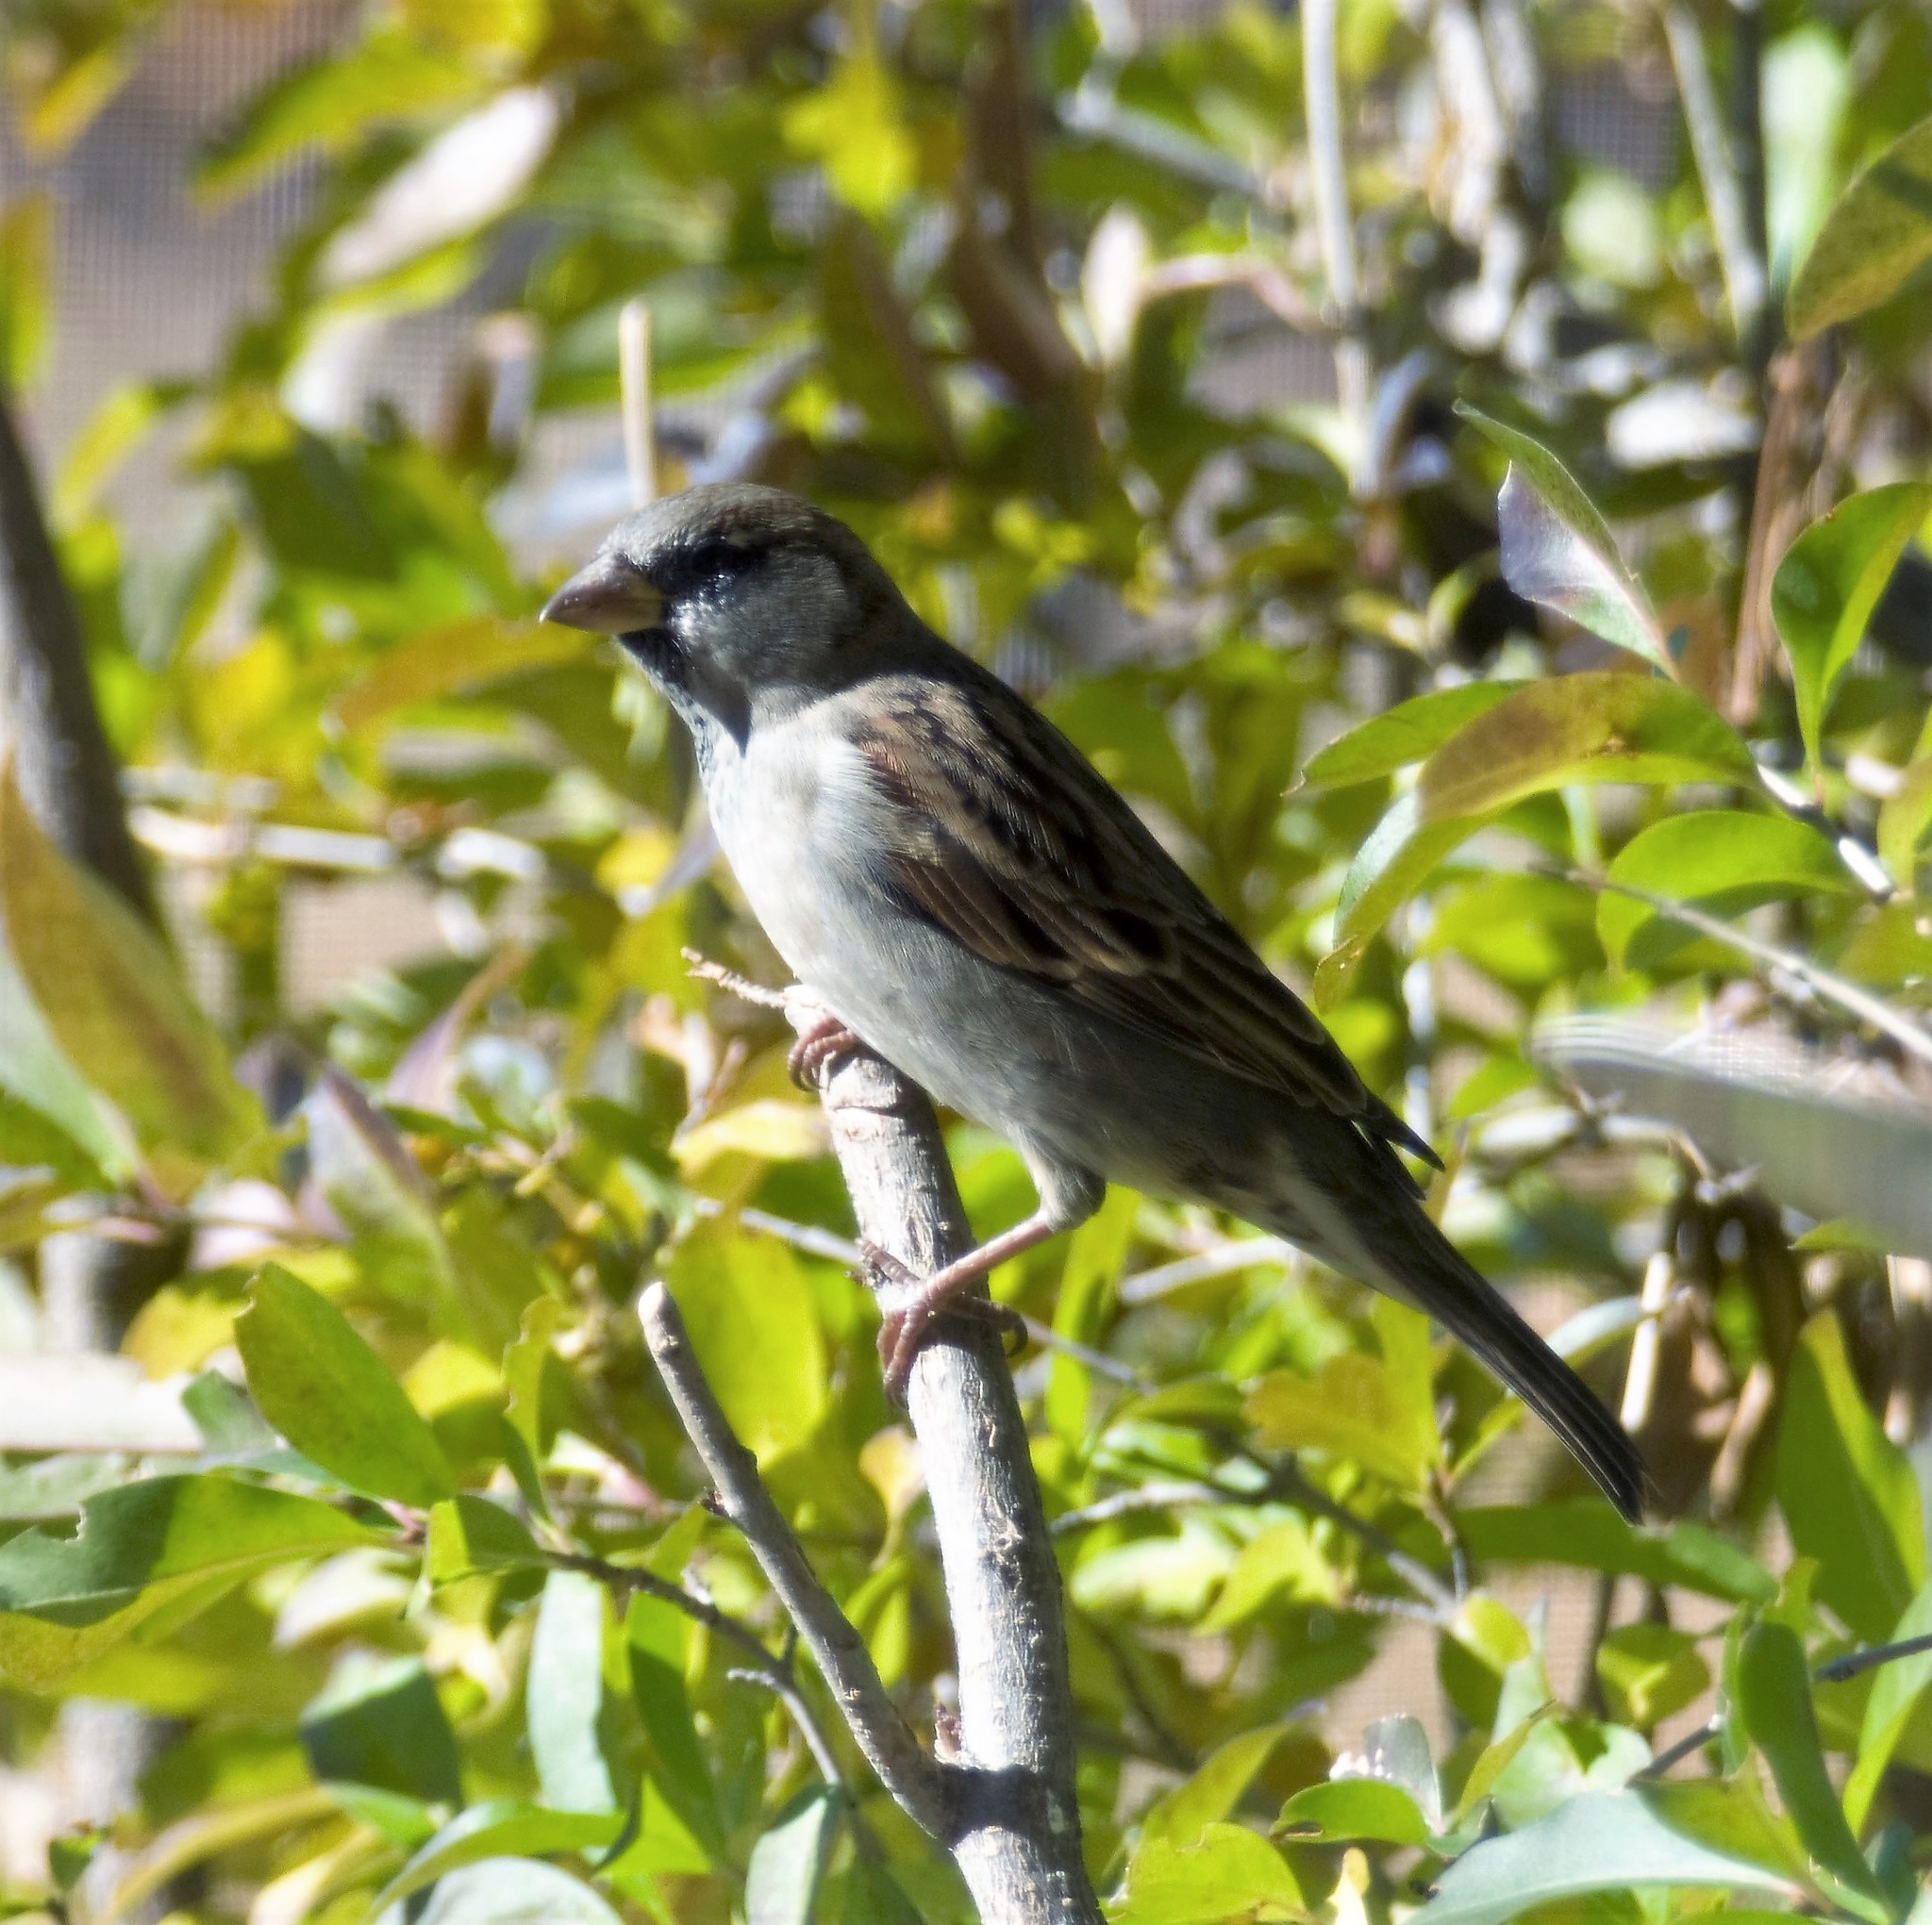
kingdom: Animalia
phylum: Chordata
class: Aves
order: Passeriformes
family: Passeridae
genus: Passer
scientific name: Passer domesticus
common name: House sparrow
